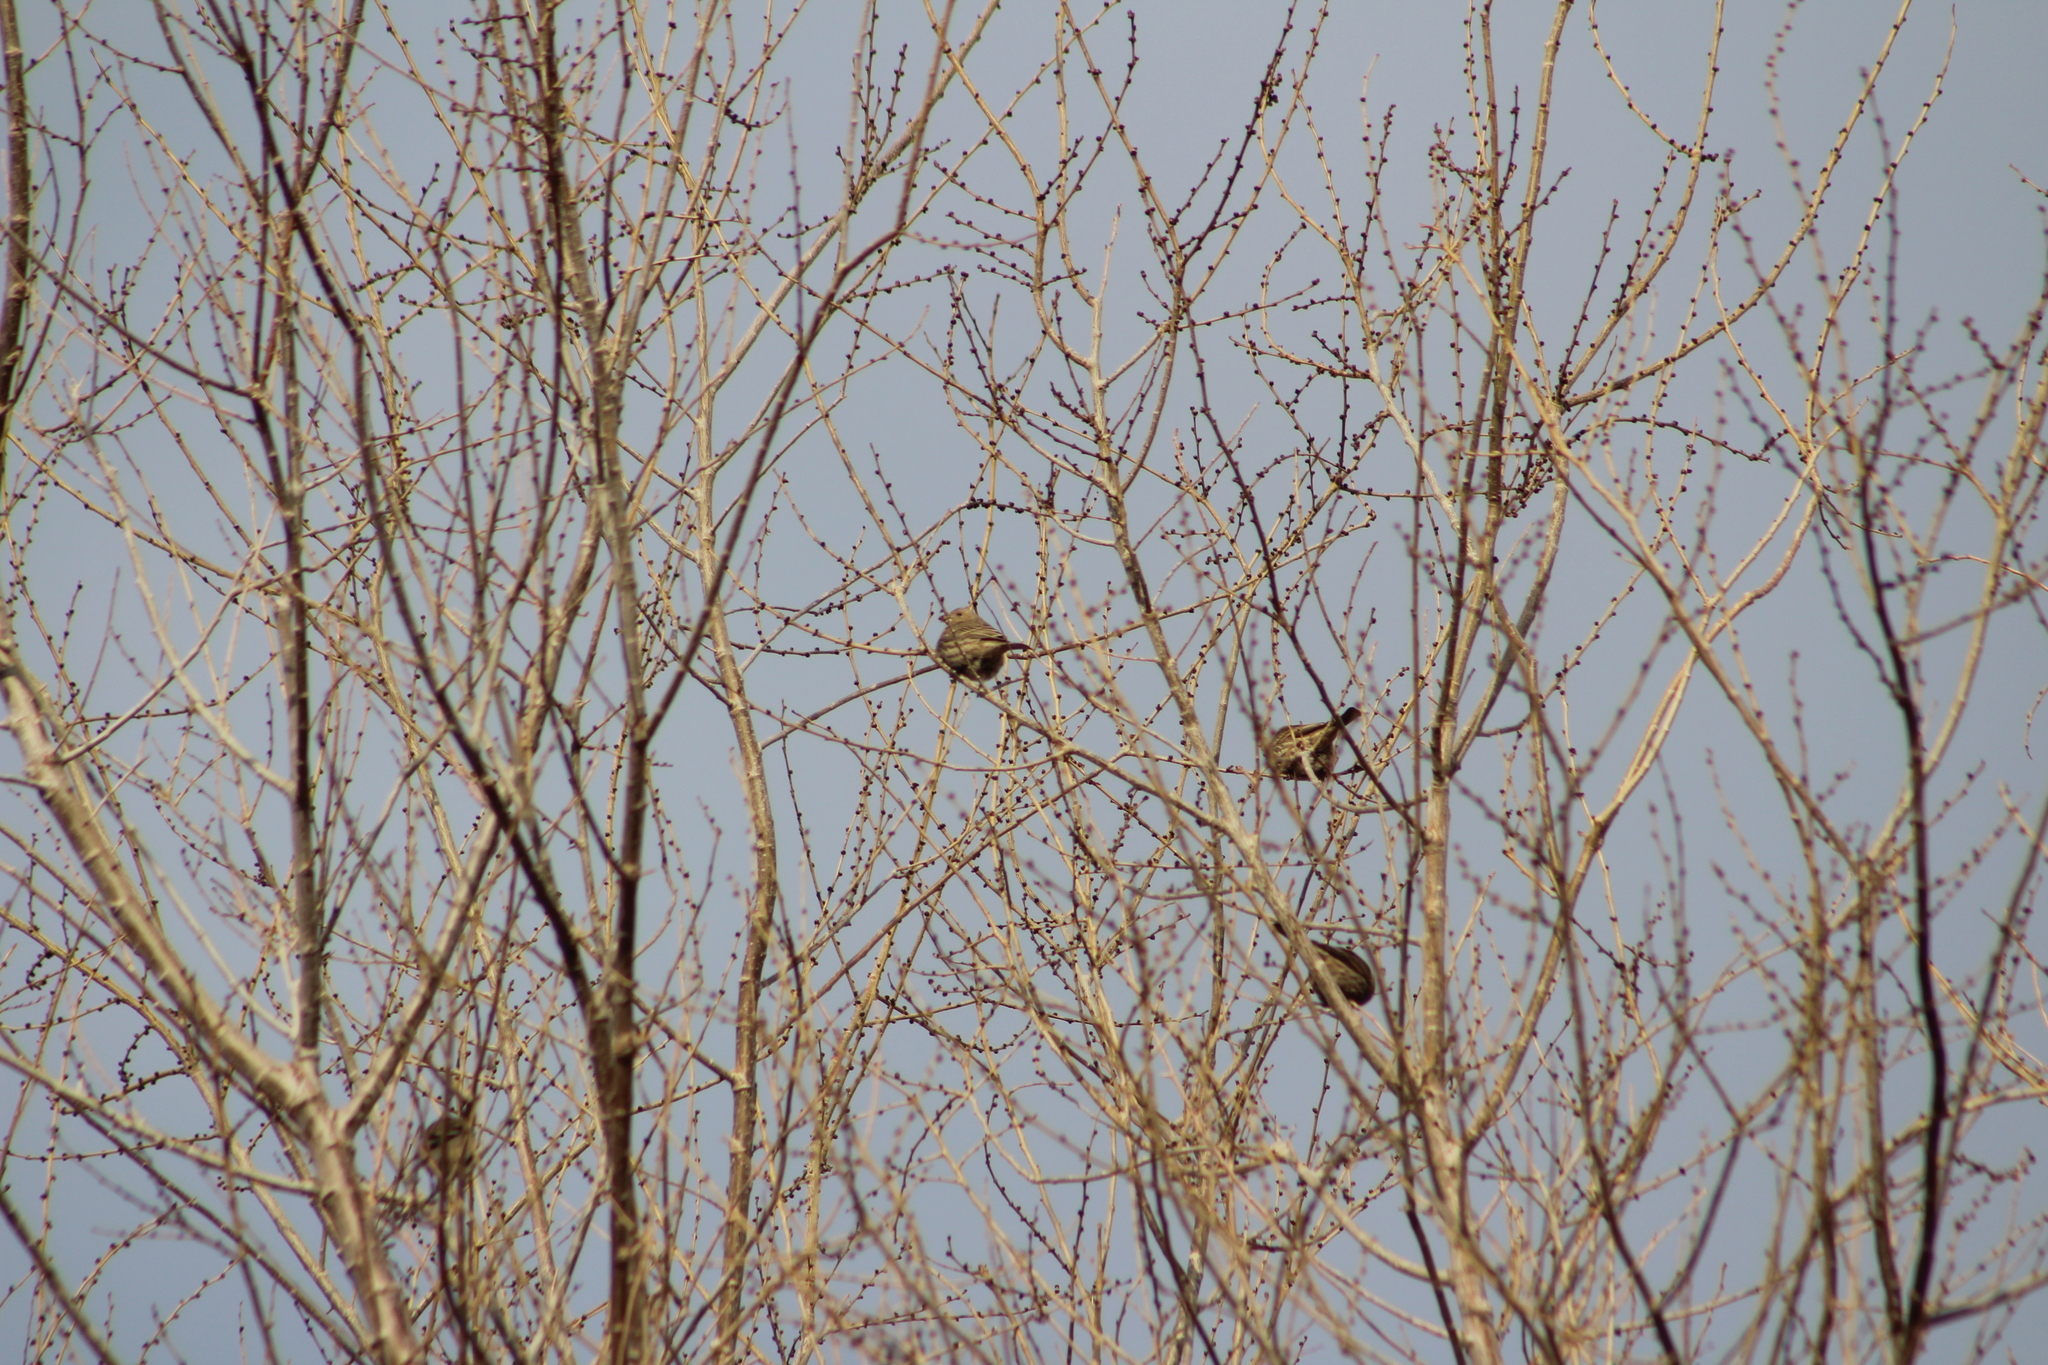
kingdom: Animalia
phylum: Chordata
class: Aves
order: Passeriformes
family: Fringillidae
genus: Haemorhous
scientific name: Haemorhous mexicanus
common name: House finch
